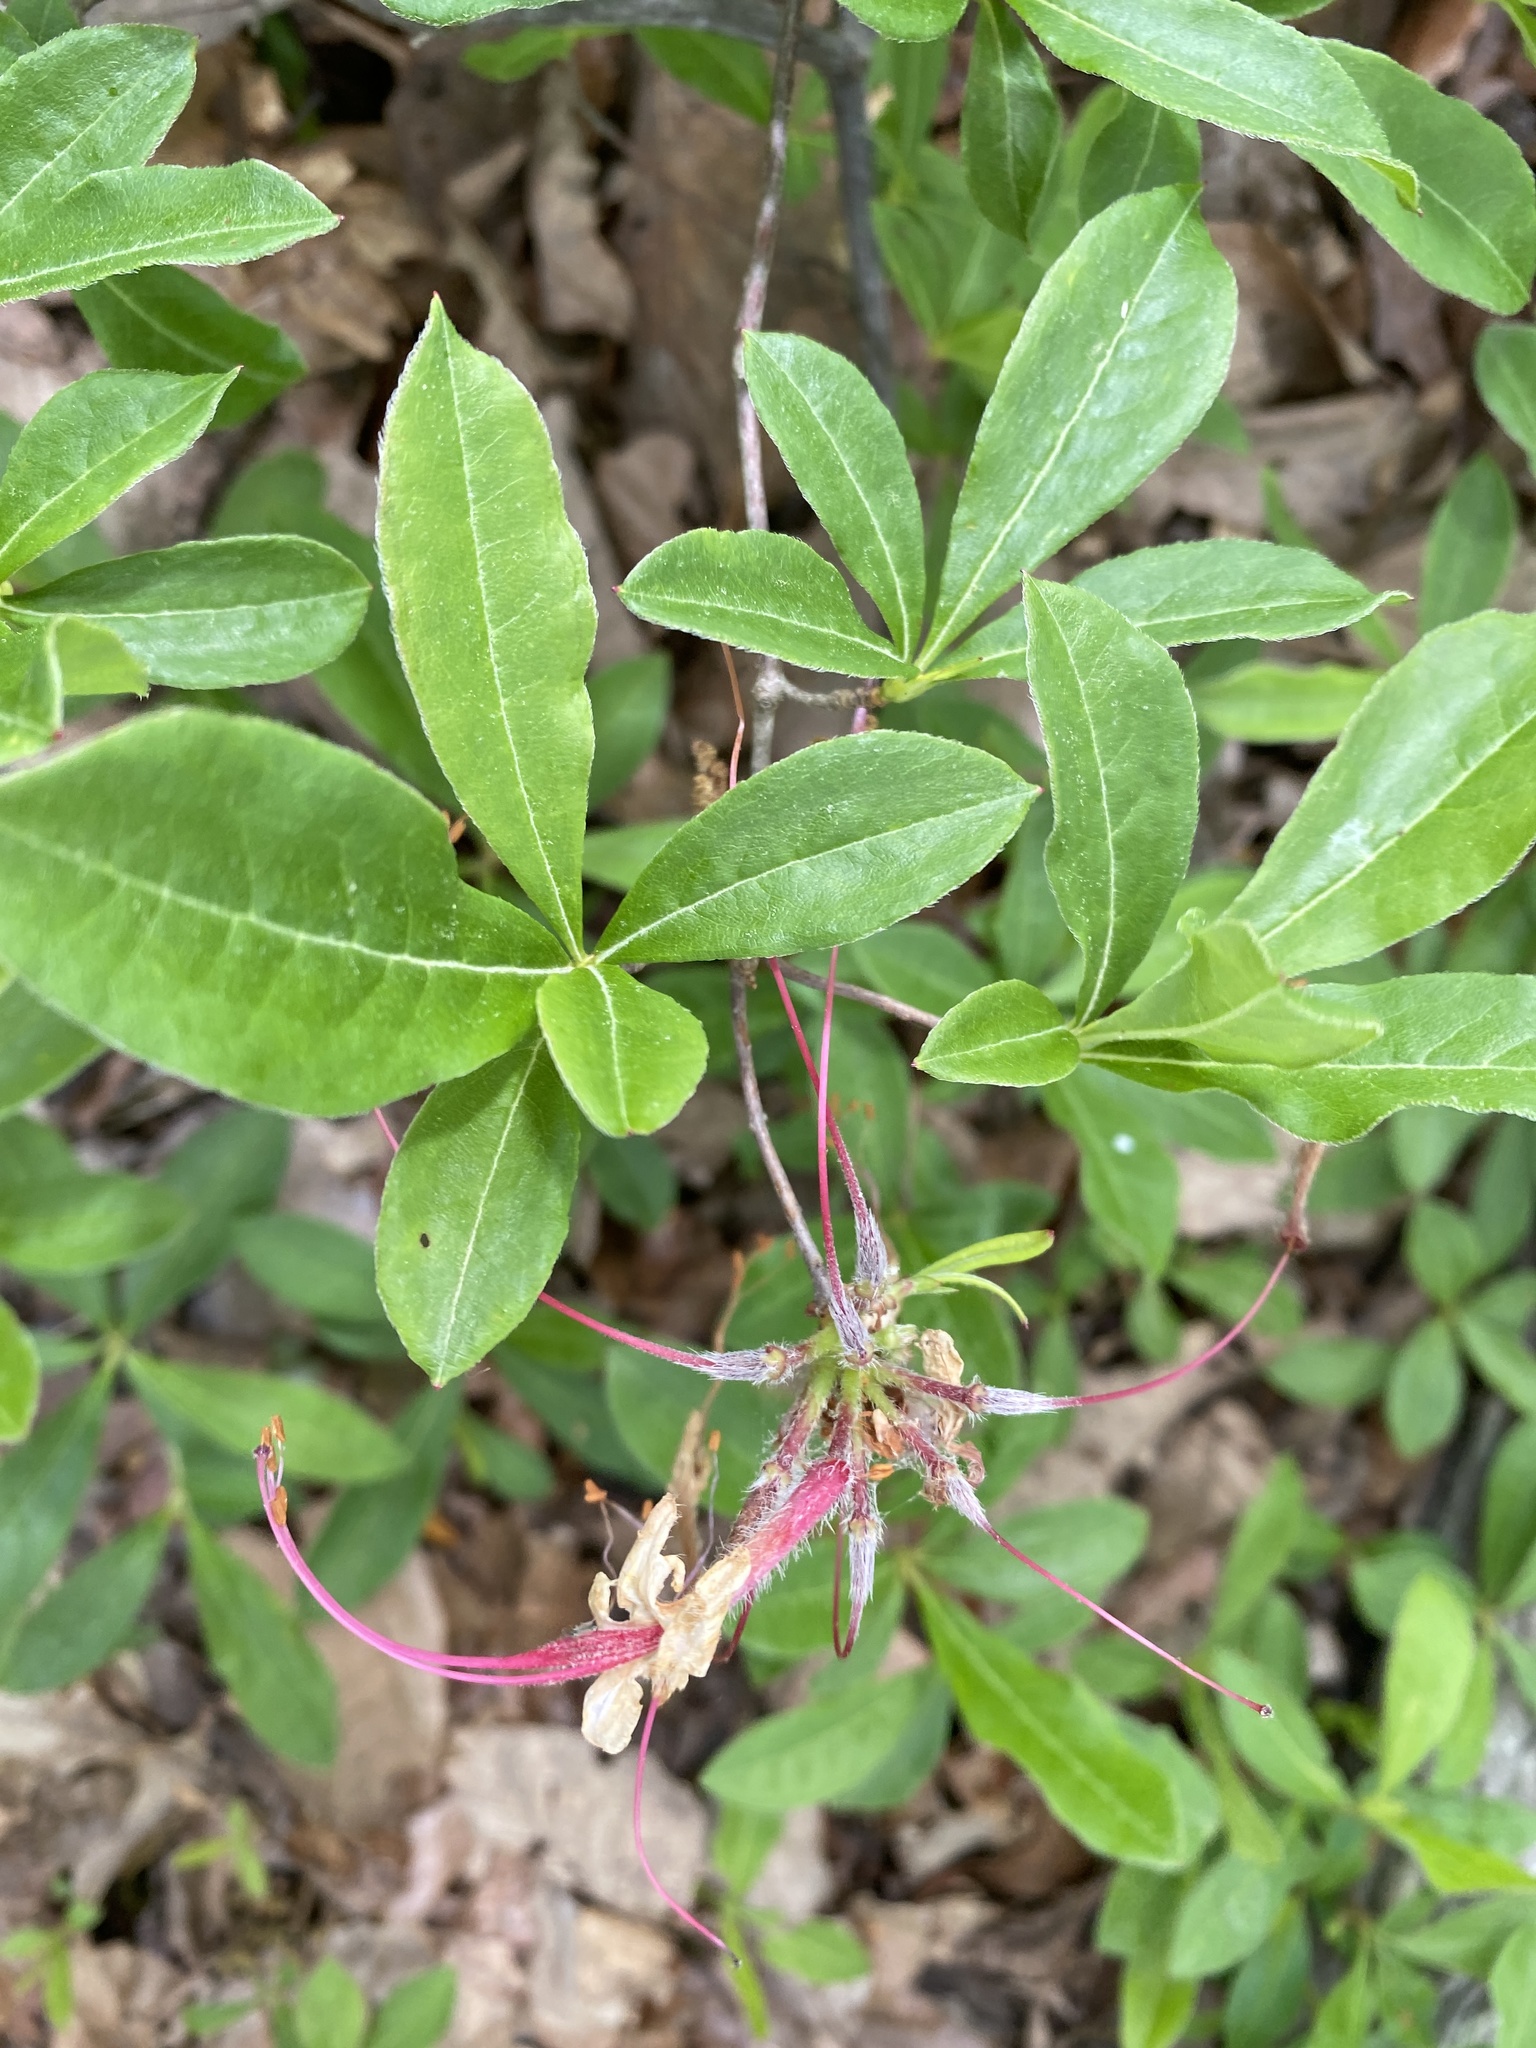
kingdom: Plantae
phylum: Tracheophyta
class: Magnoliopsida
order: Ericales
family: Ericaceae
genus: Rhododendron
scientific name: Rhododendron periclymenoides
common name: Election-pink
